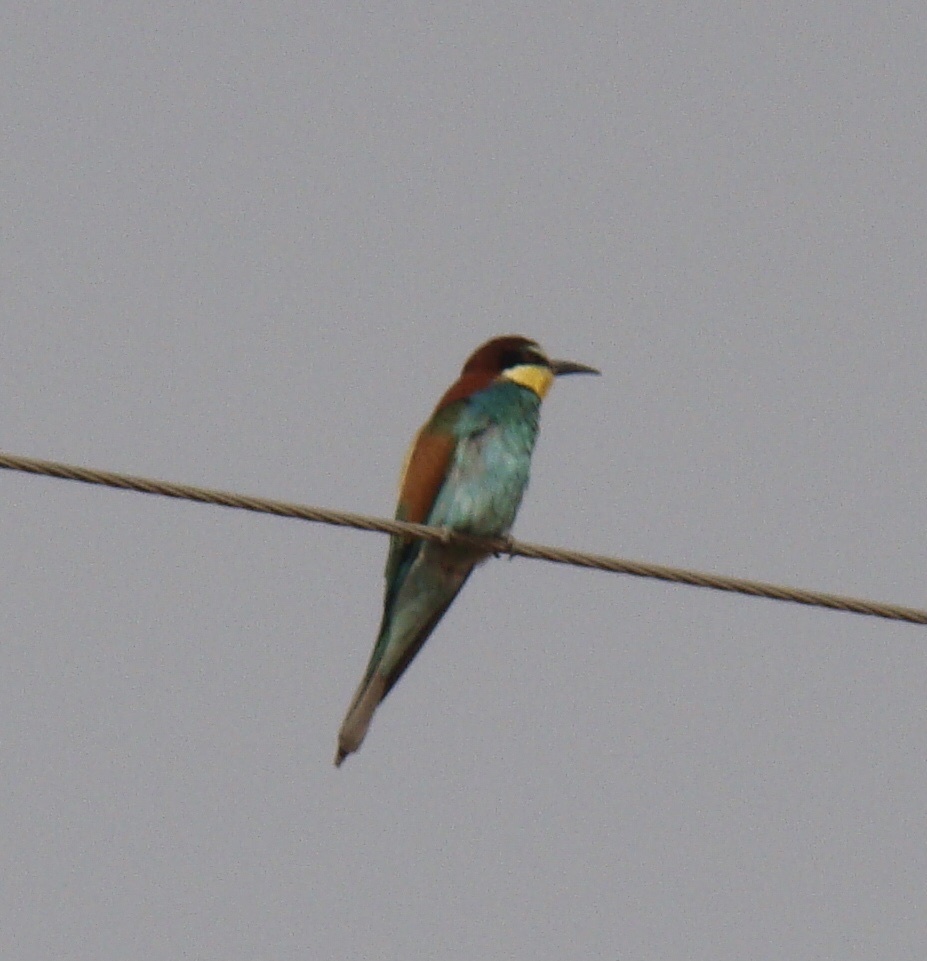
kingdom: Animalia
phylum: Chordata
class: Aves
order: Coraciiformes
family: Meropidae
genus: Merops
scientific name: Merops apiaster
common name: European bee-eater
